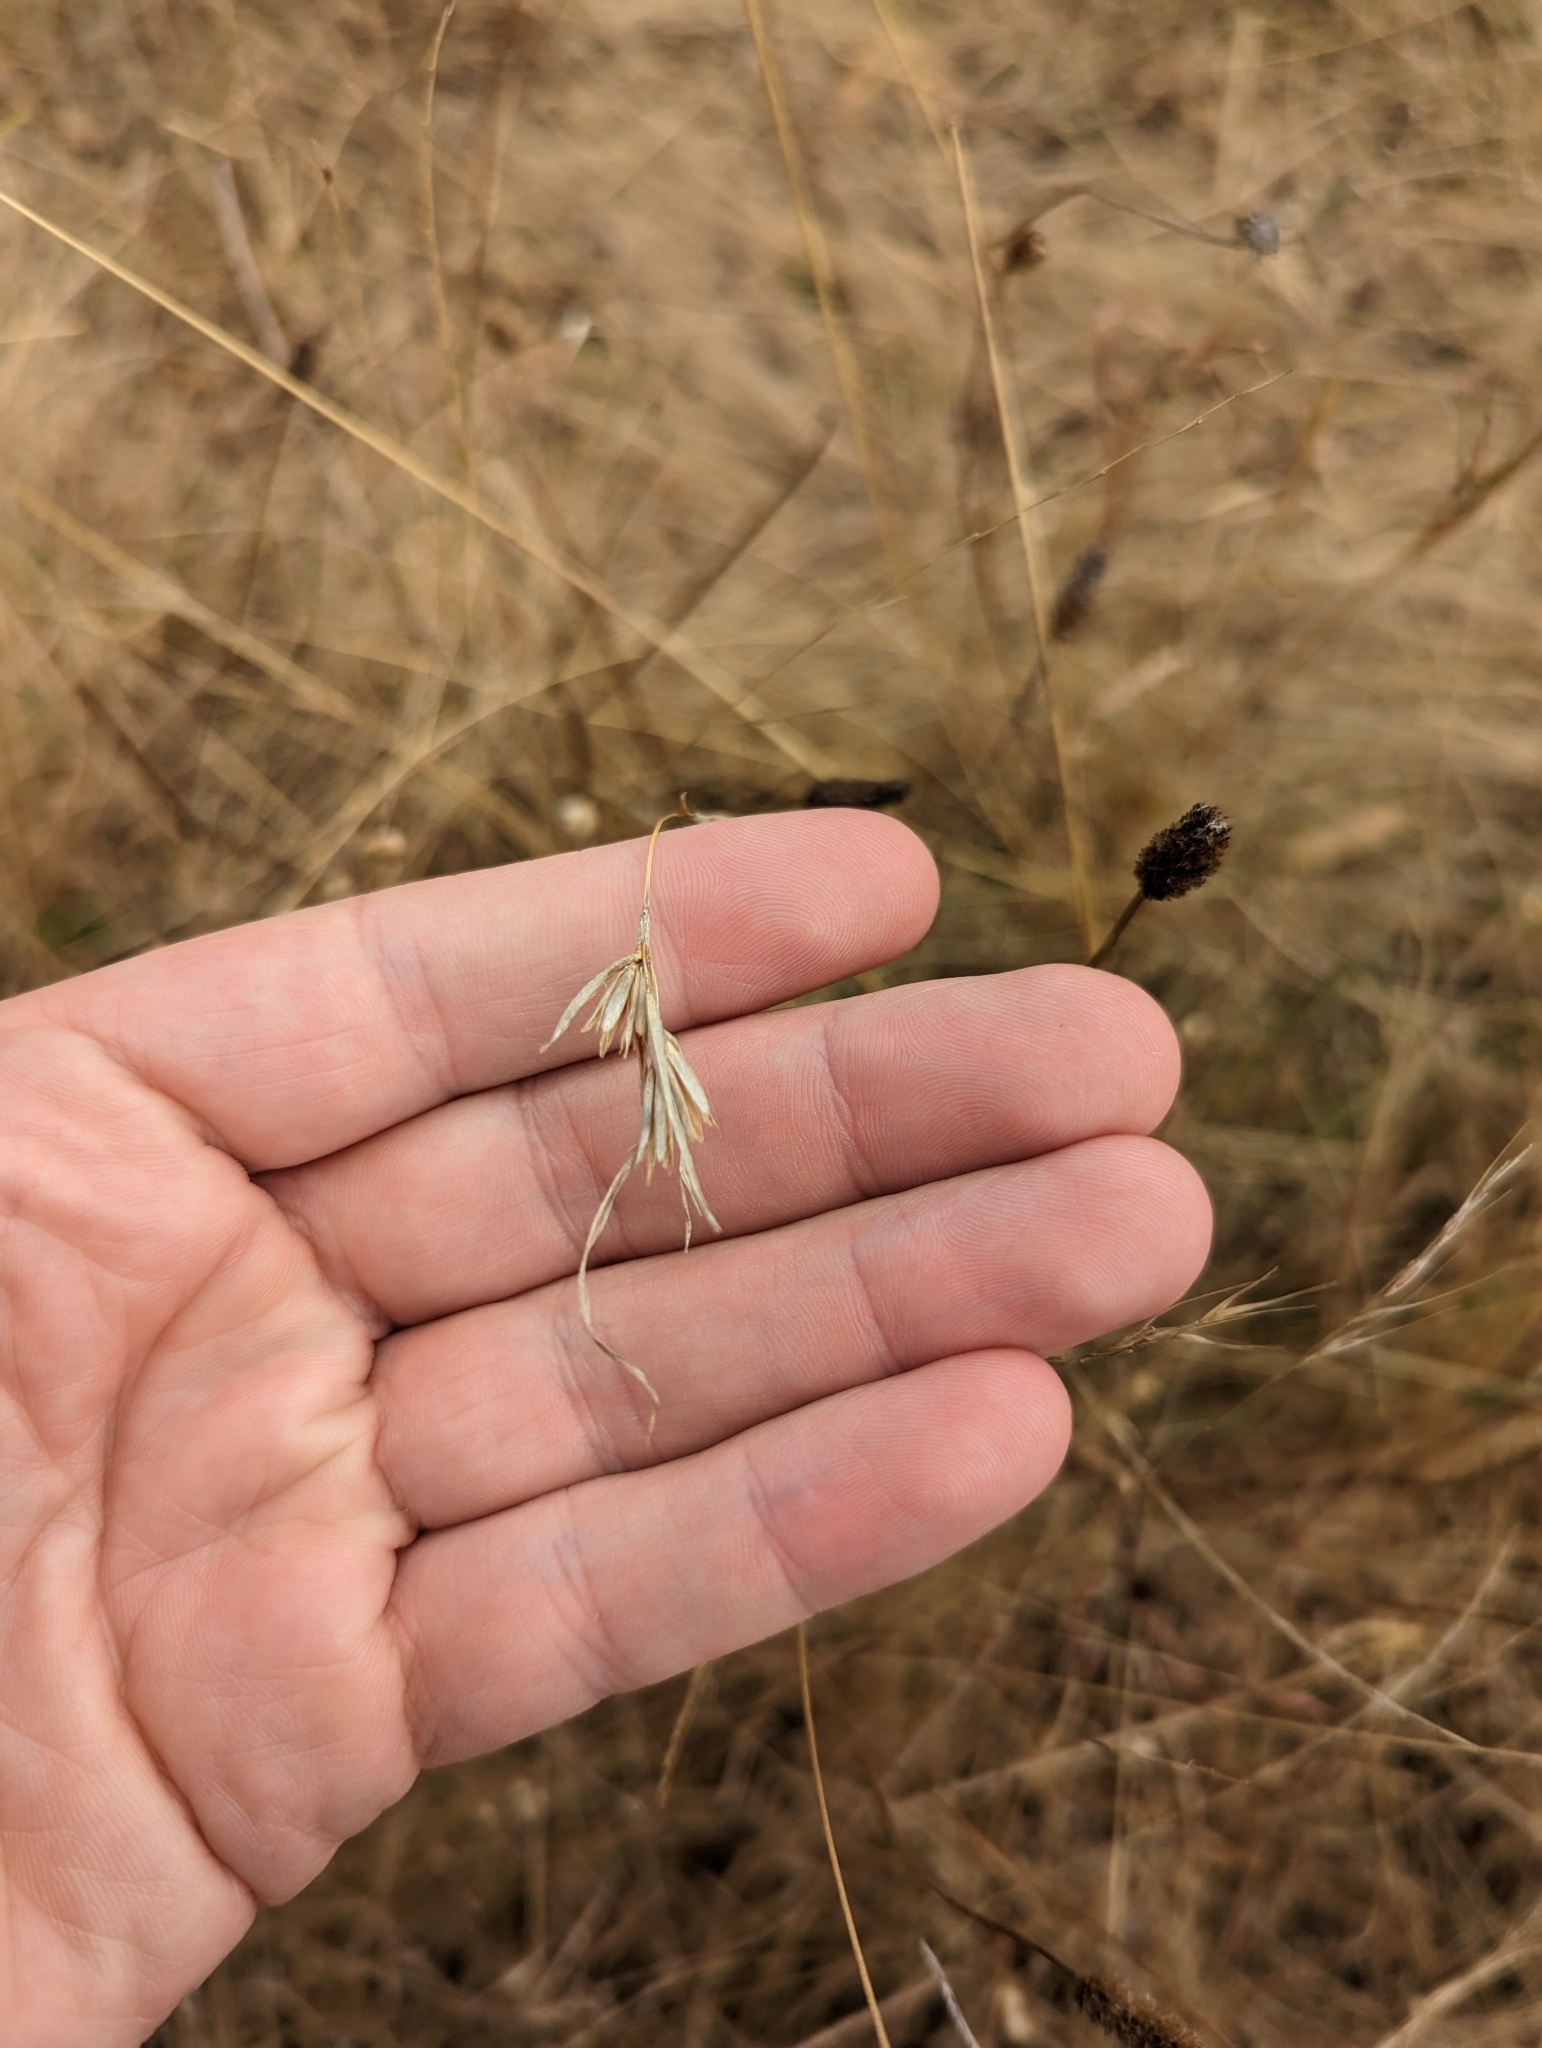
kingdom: Plantae
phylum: Tracheophyta
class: Liliopsida
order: Poales
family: Poaceae
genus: Themeda
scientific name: Themeda triandra
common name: Kangaroo grass
